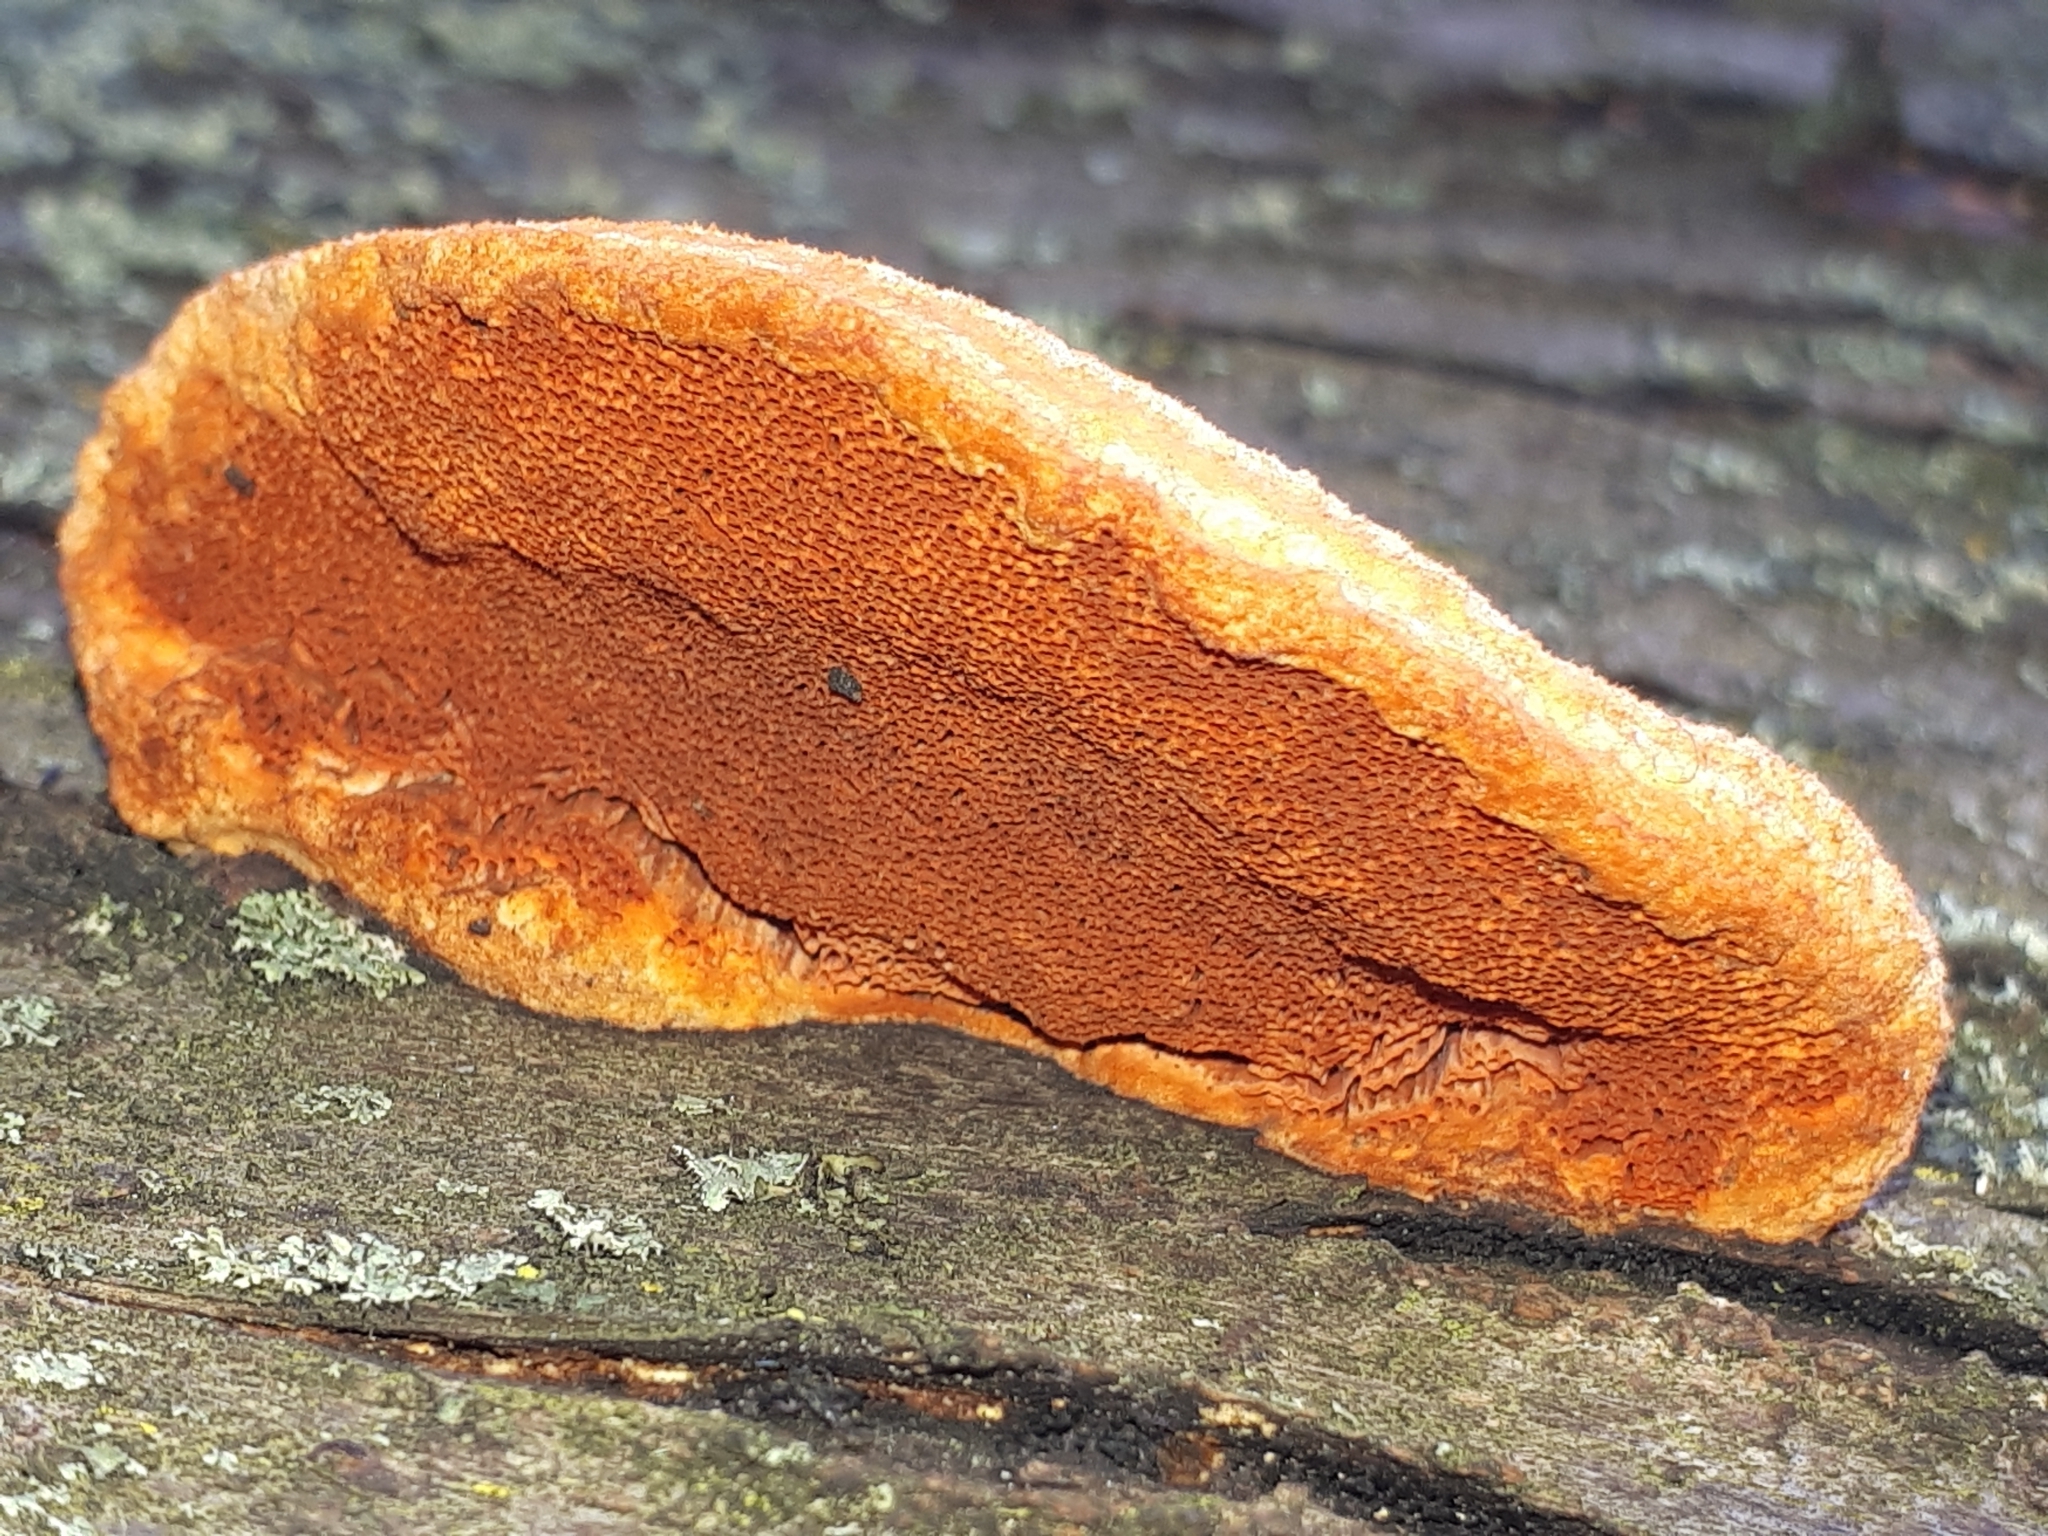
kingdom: Fungi
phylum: Basidiomycota
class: Agaricomycetes
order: Polyporales
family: Polyporaceae
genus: Trametes
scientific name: Trametes cinnabarina
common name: Northern cinnabar polypore
